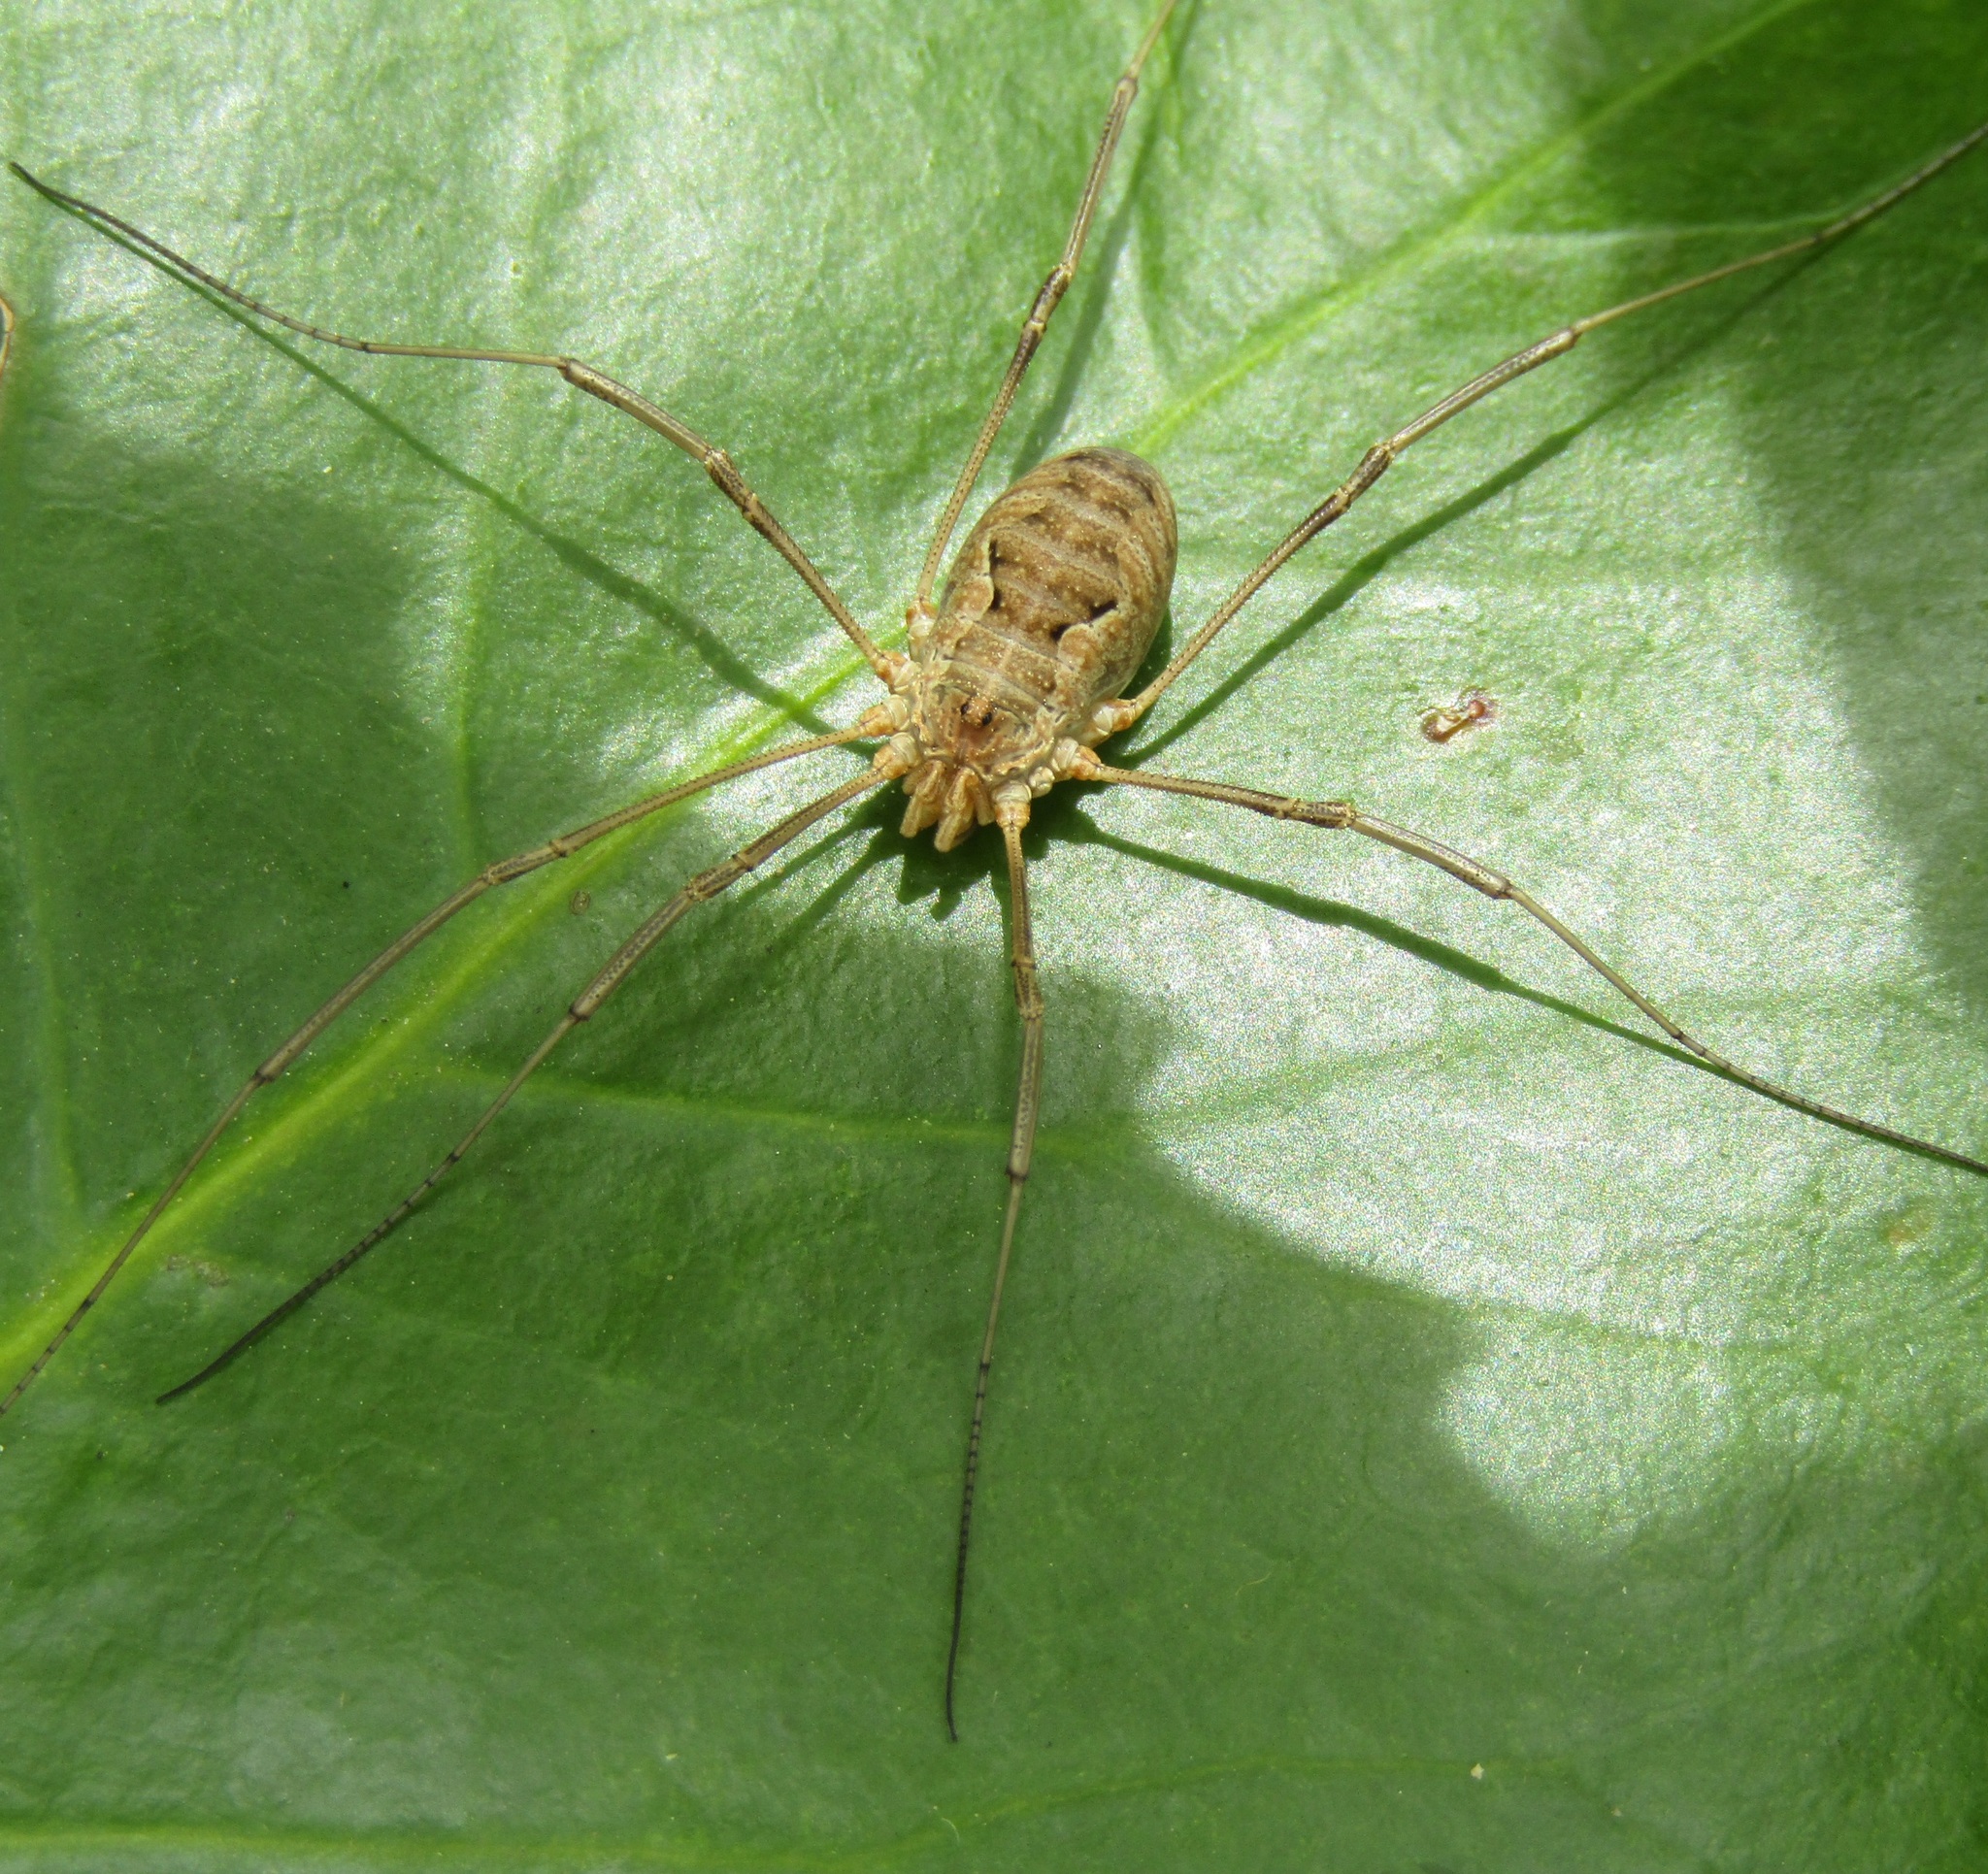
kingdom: Animalia
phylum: Arthropoda
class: Arachnida
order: Opiliones
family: Phalangiidae
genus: Phalangium
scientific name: Phalangium opilio
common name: Daddy longleg
